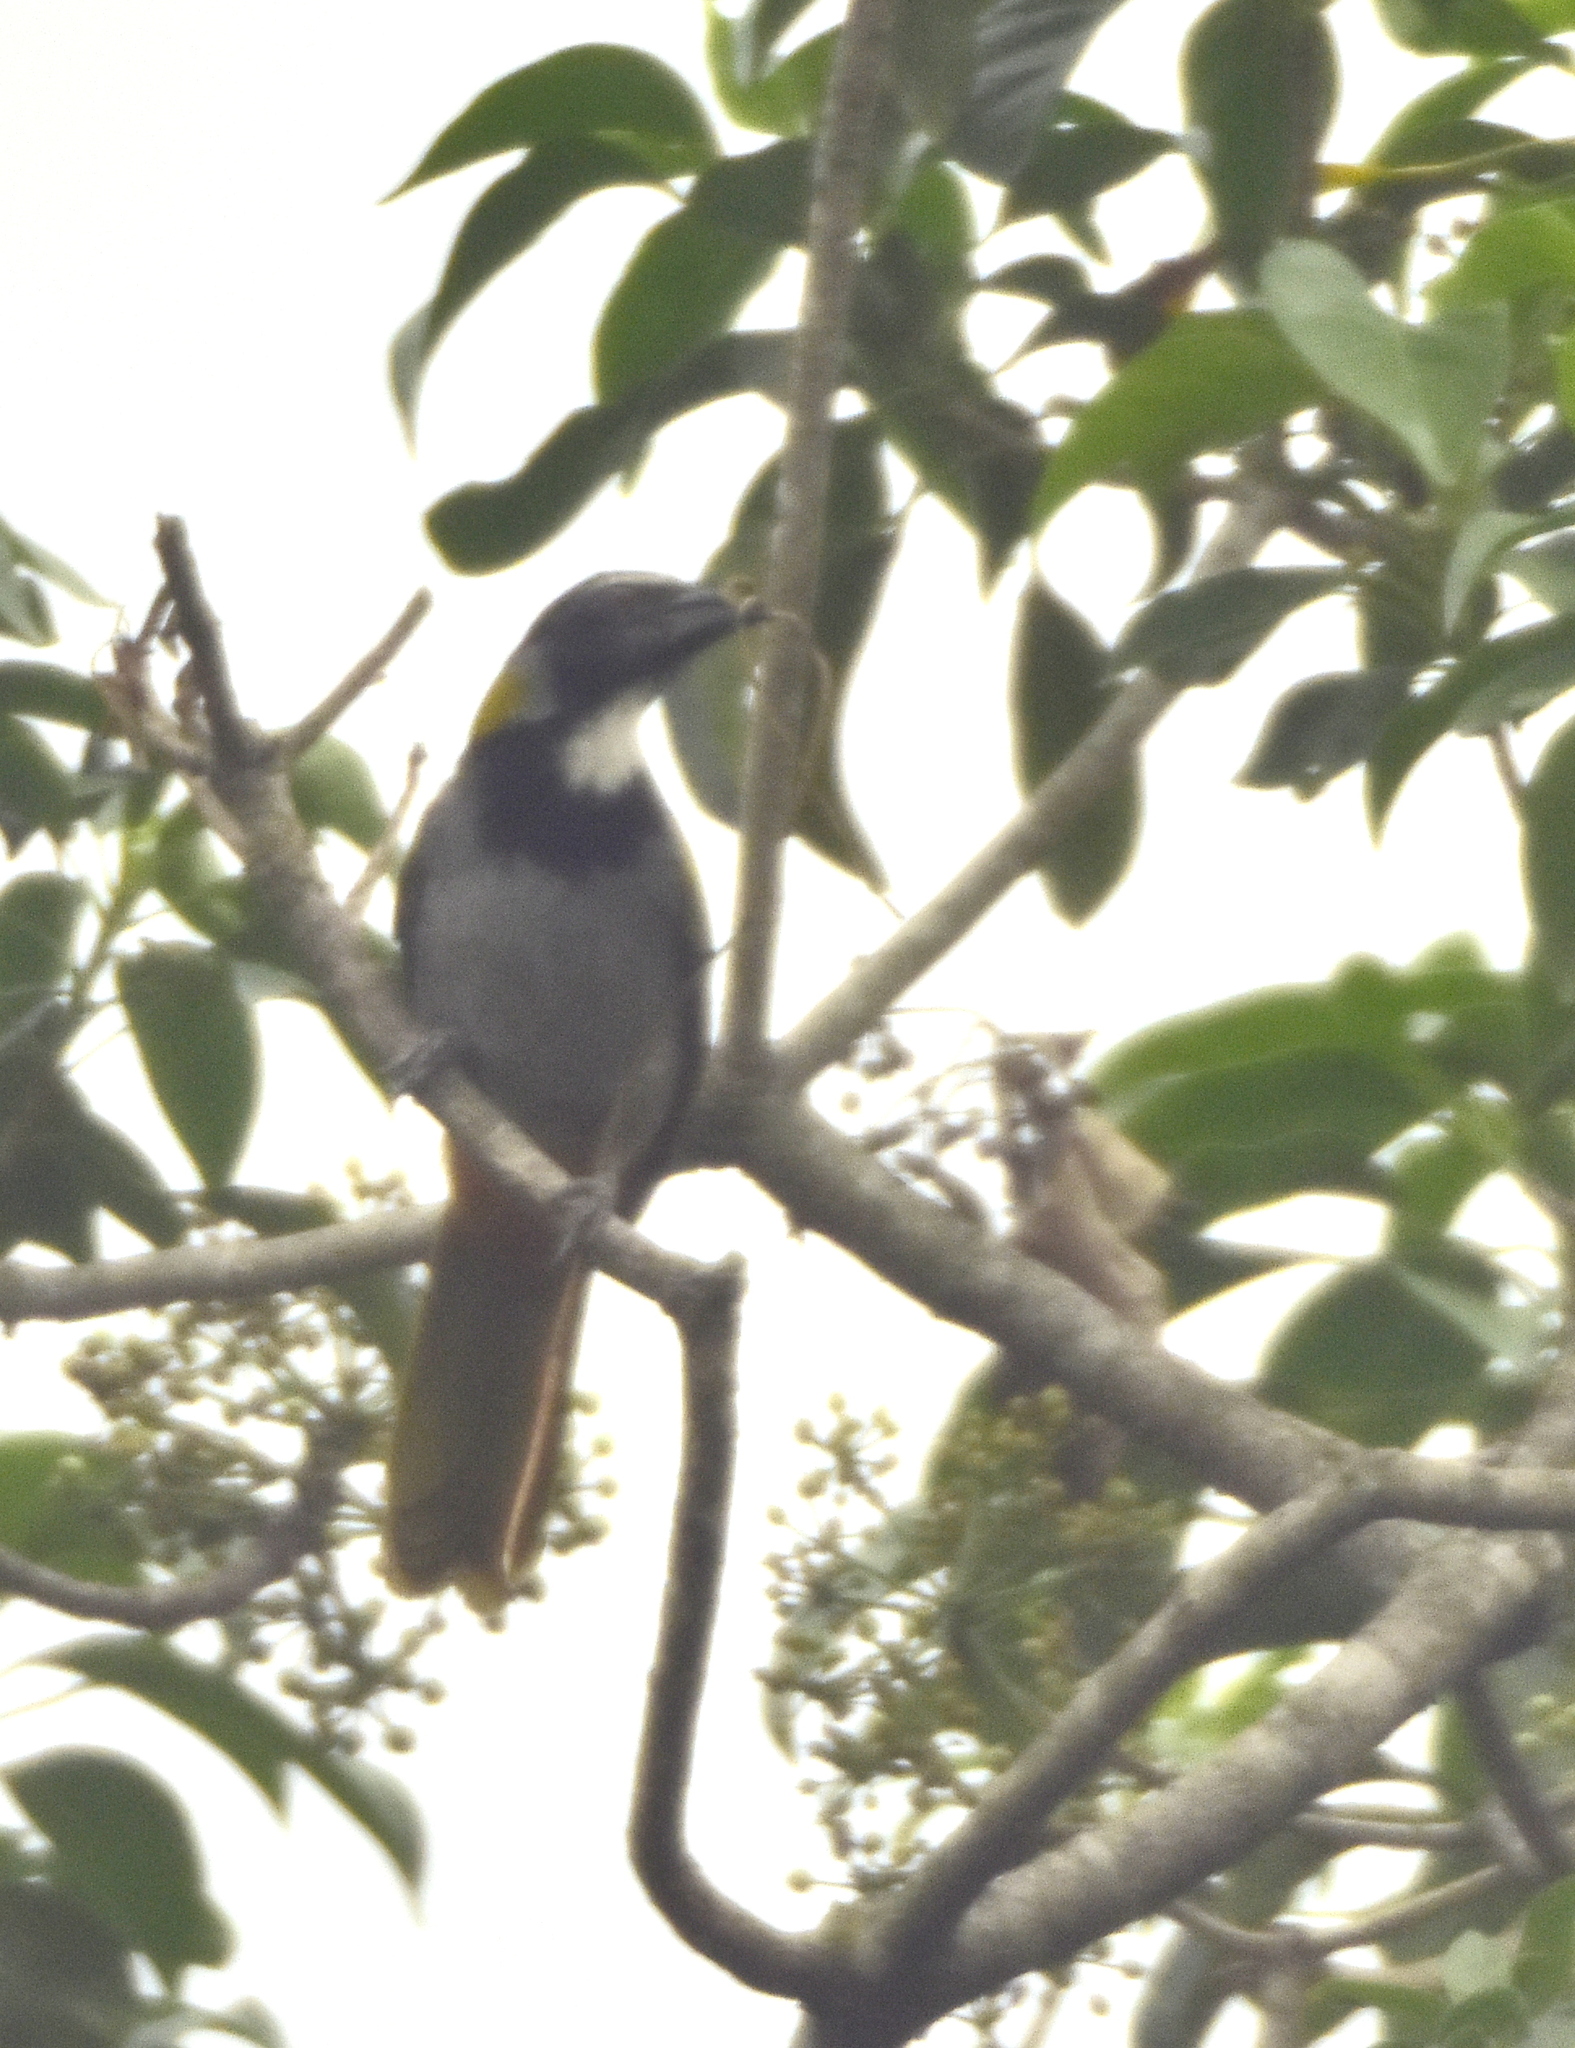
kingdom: Animalia
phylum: Chordata
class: Aves
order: Passeriformes
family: Thraupidae
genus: Saltator
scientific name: Saltator atriceps
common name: Black-headed saltator
